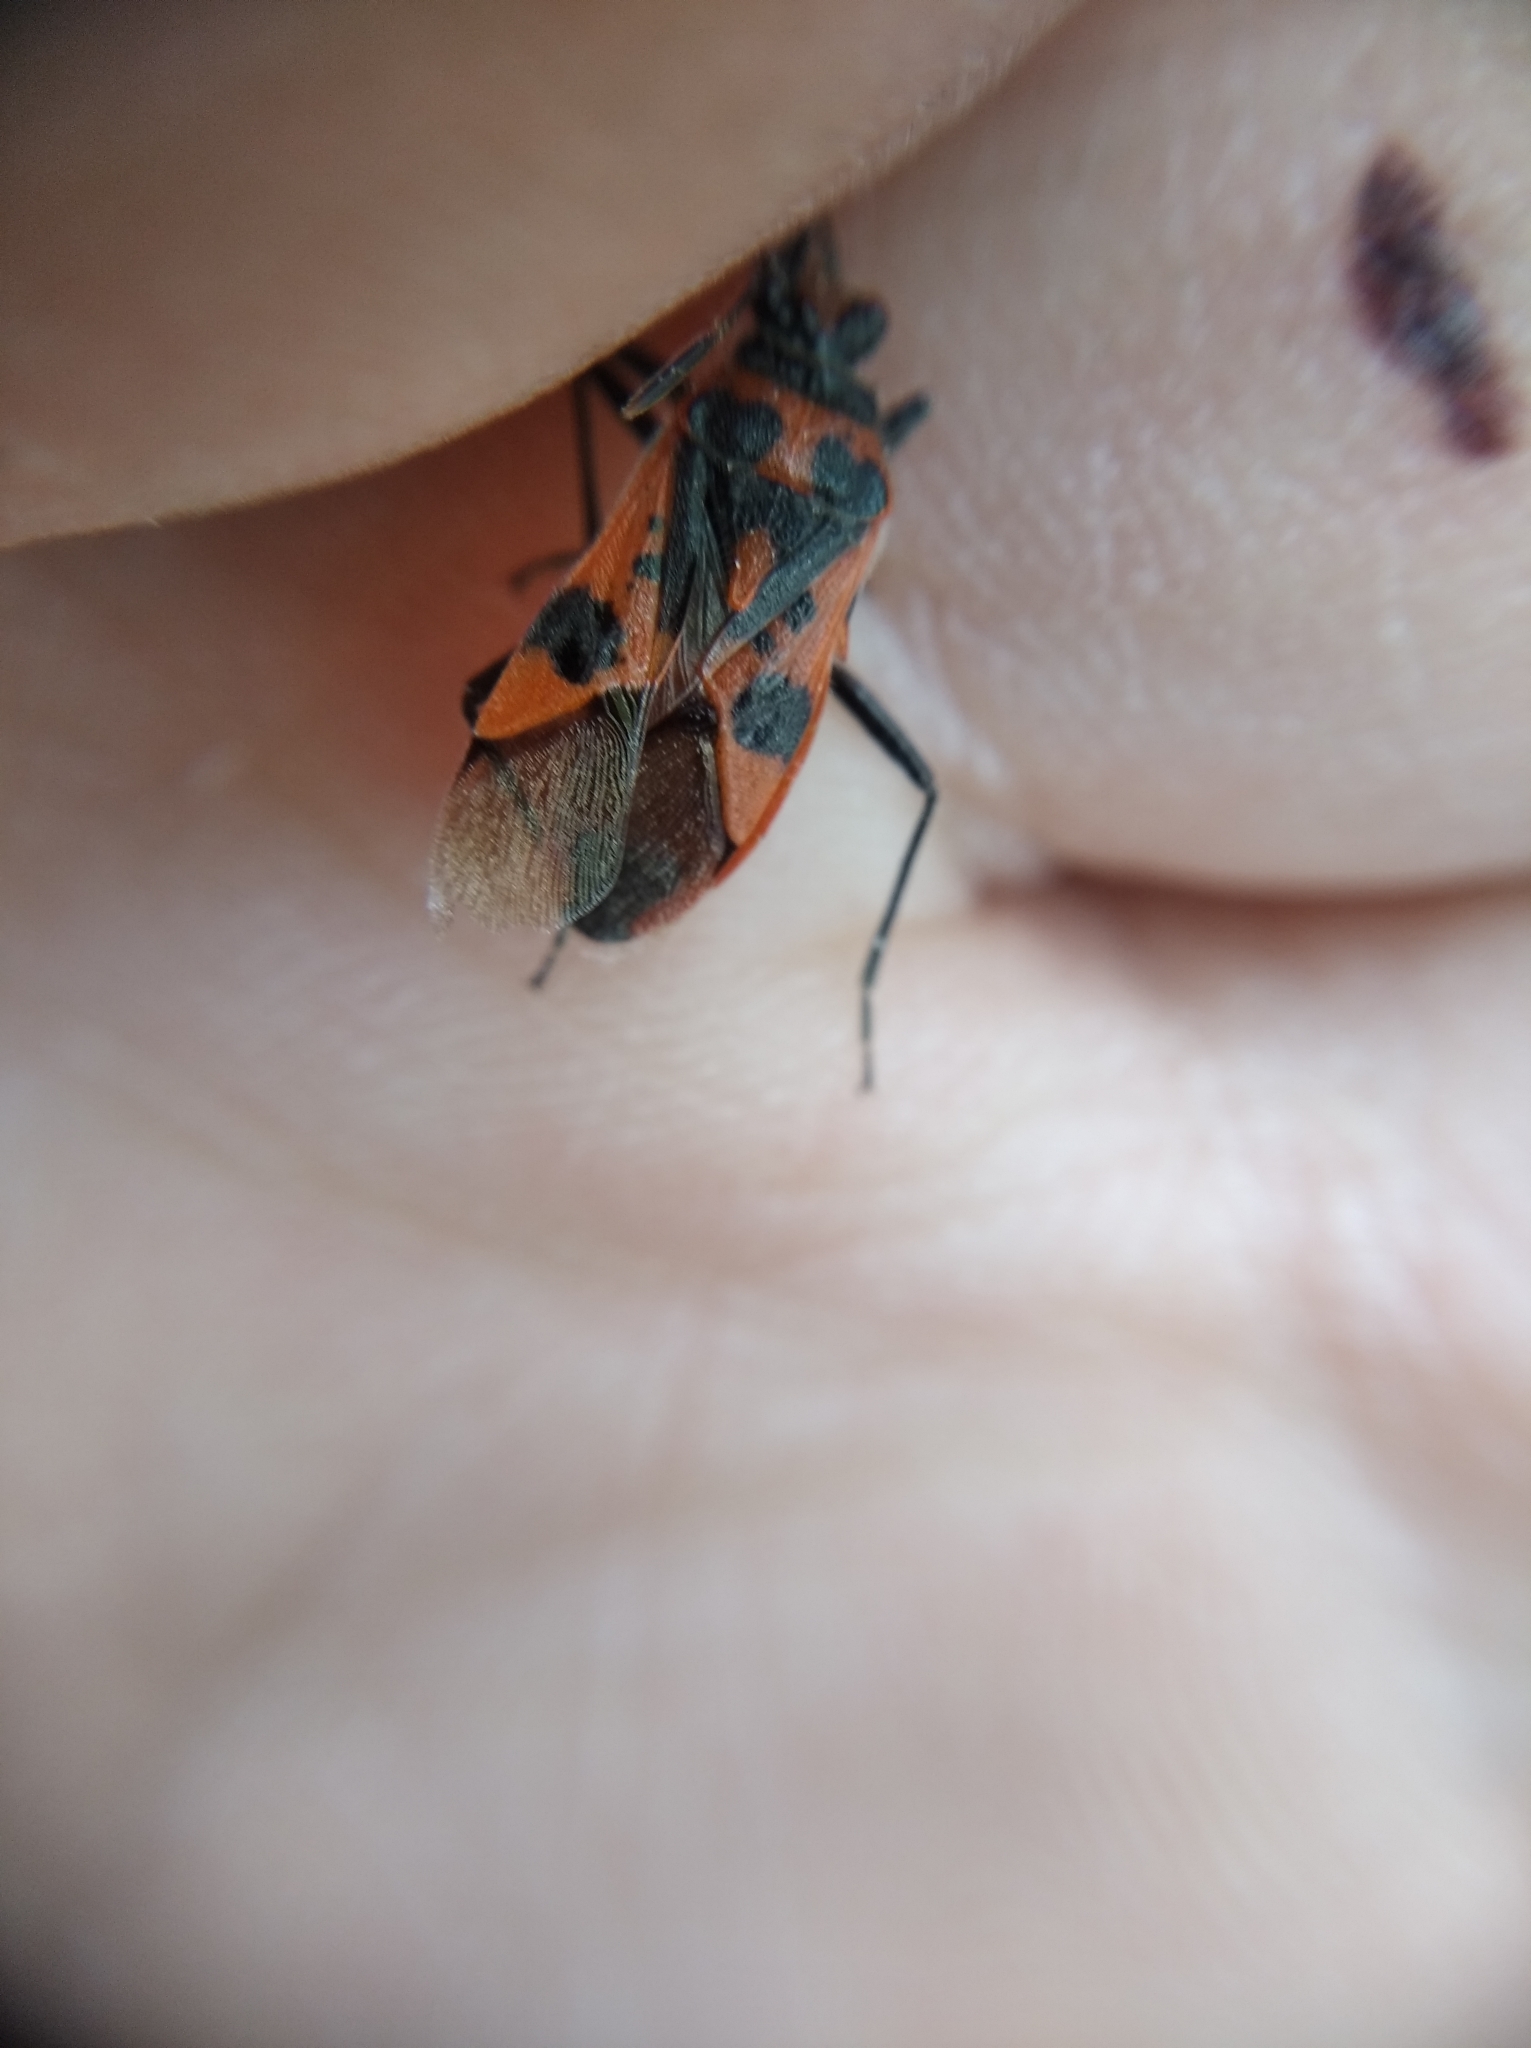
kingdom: Animalia
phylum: Arthropoda
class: Insecta
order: Hemiptera
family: Rhopalidae
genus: Corizus
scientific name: Corizus hyoscyami
